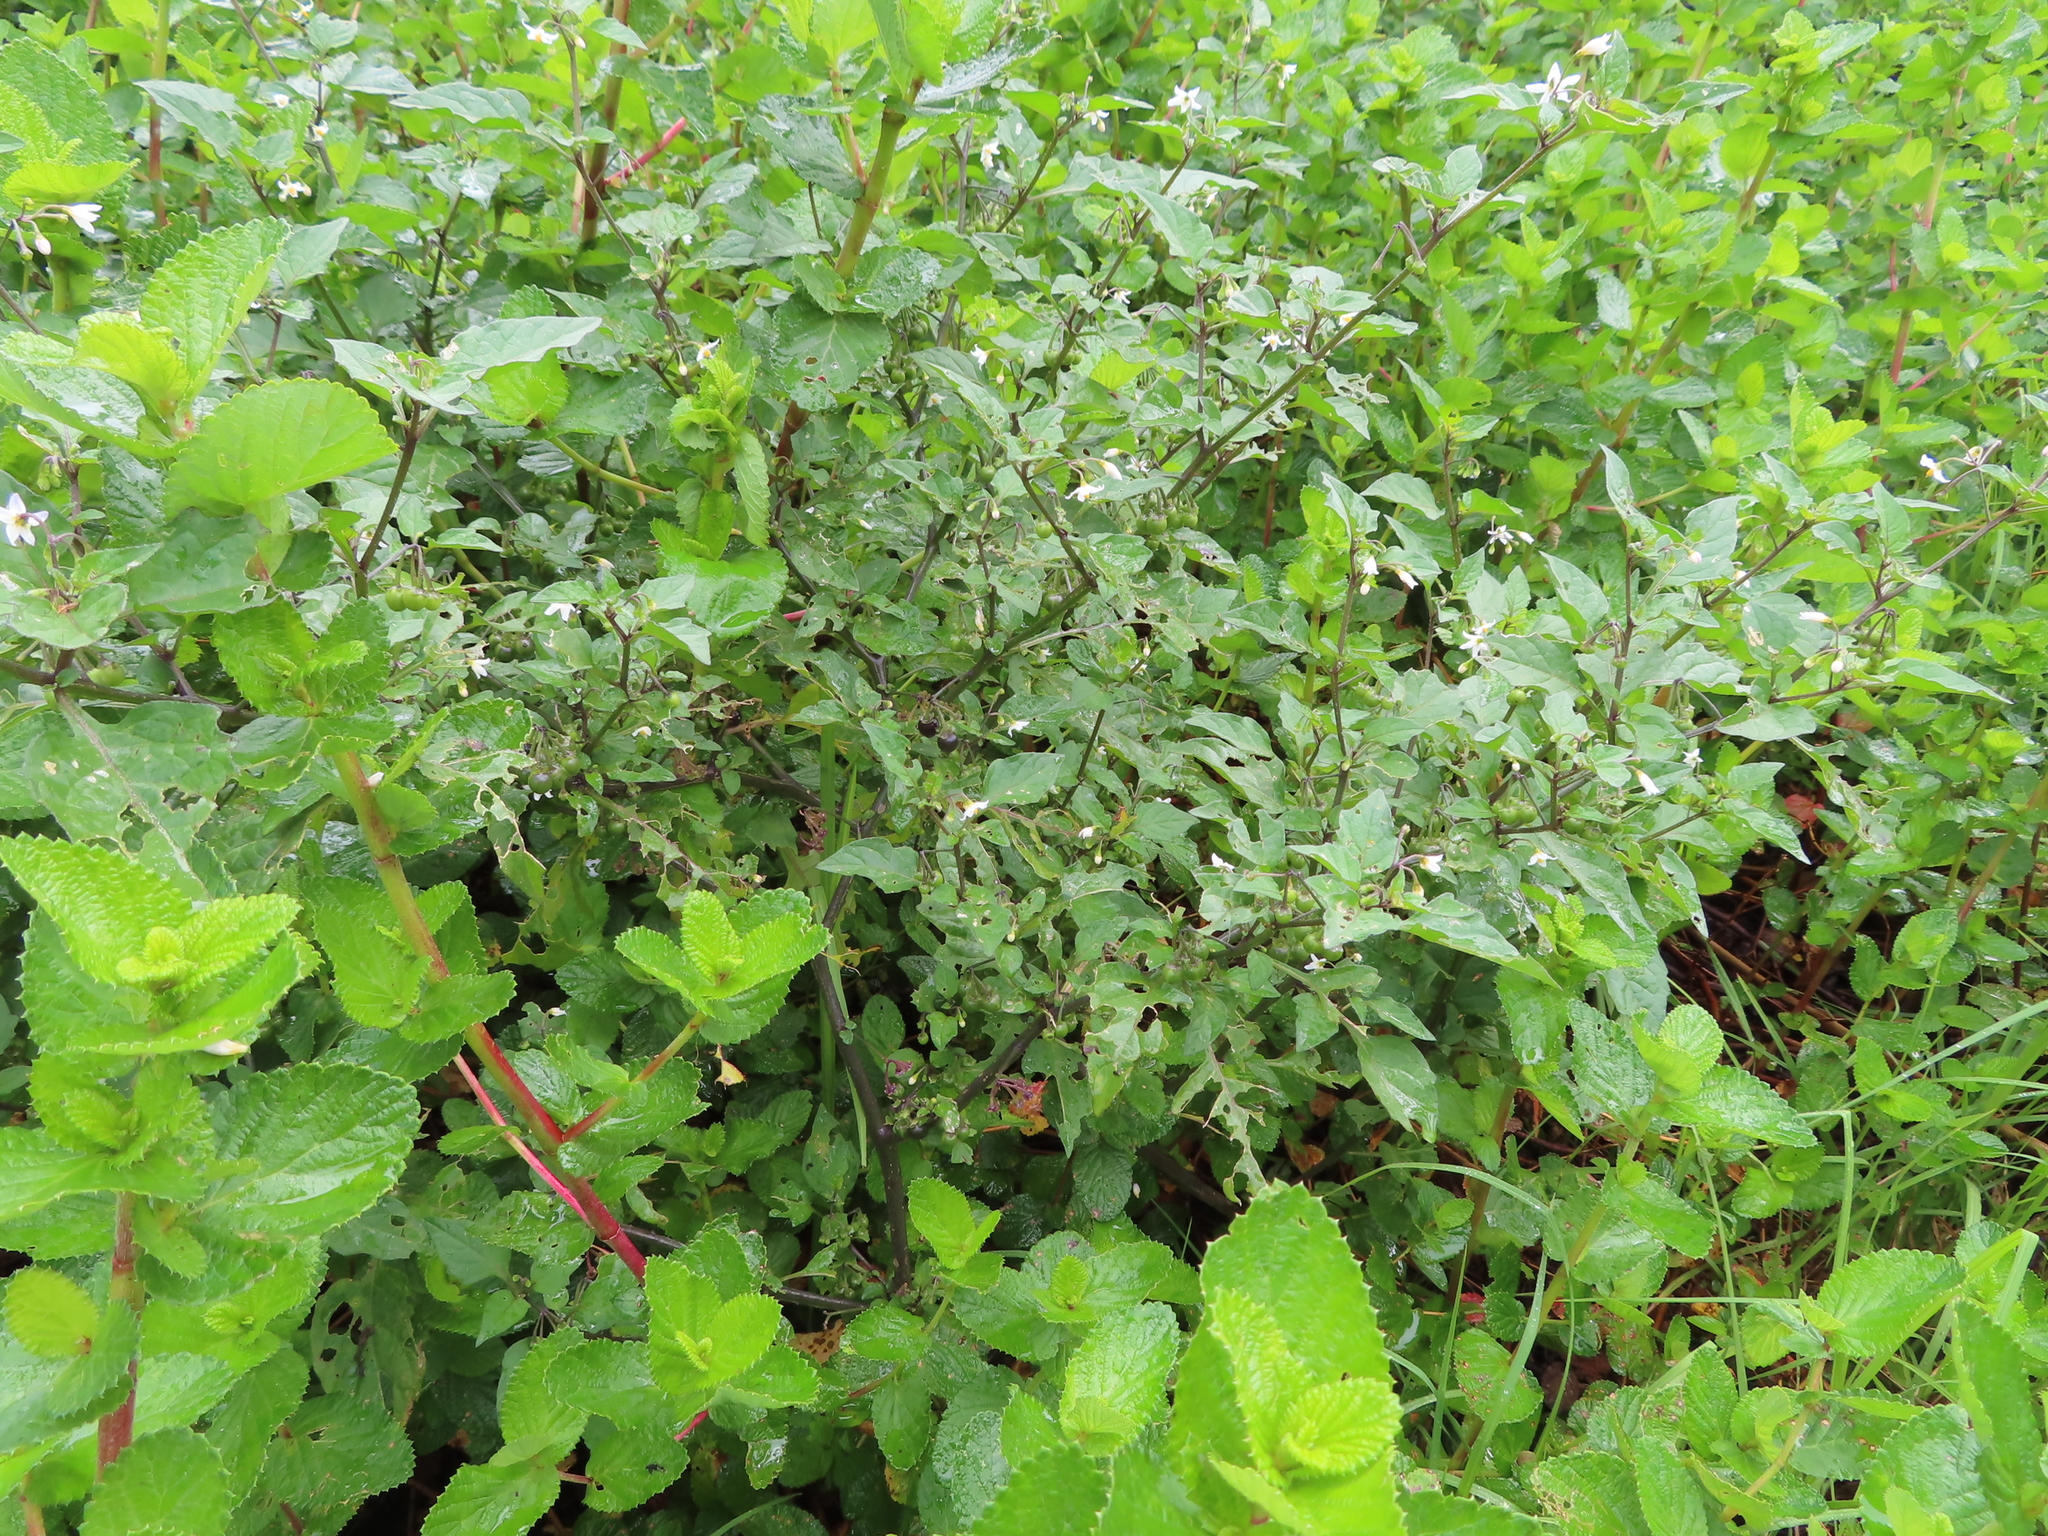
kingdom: Plantae
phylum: Tracheophyta
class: Magnoliopsida
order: Solanales
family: Solanaceae
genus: Solanum
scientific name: Solanum nigrum
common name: Black nightshade
